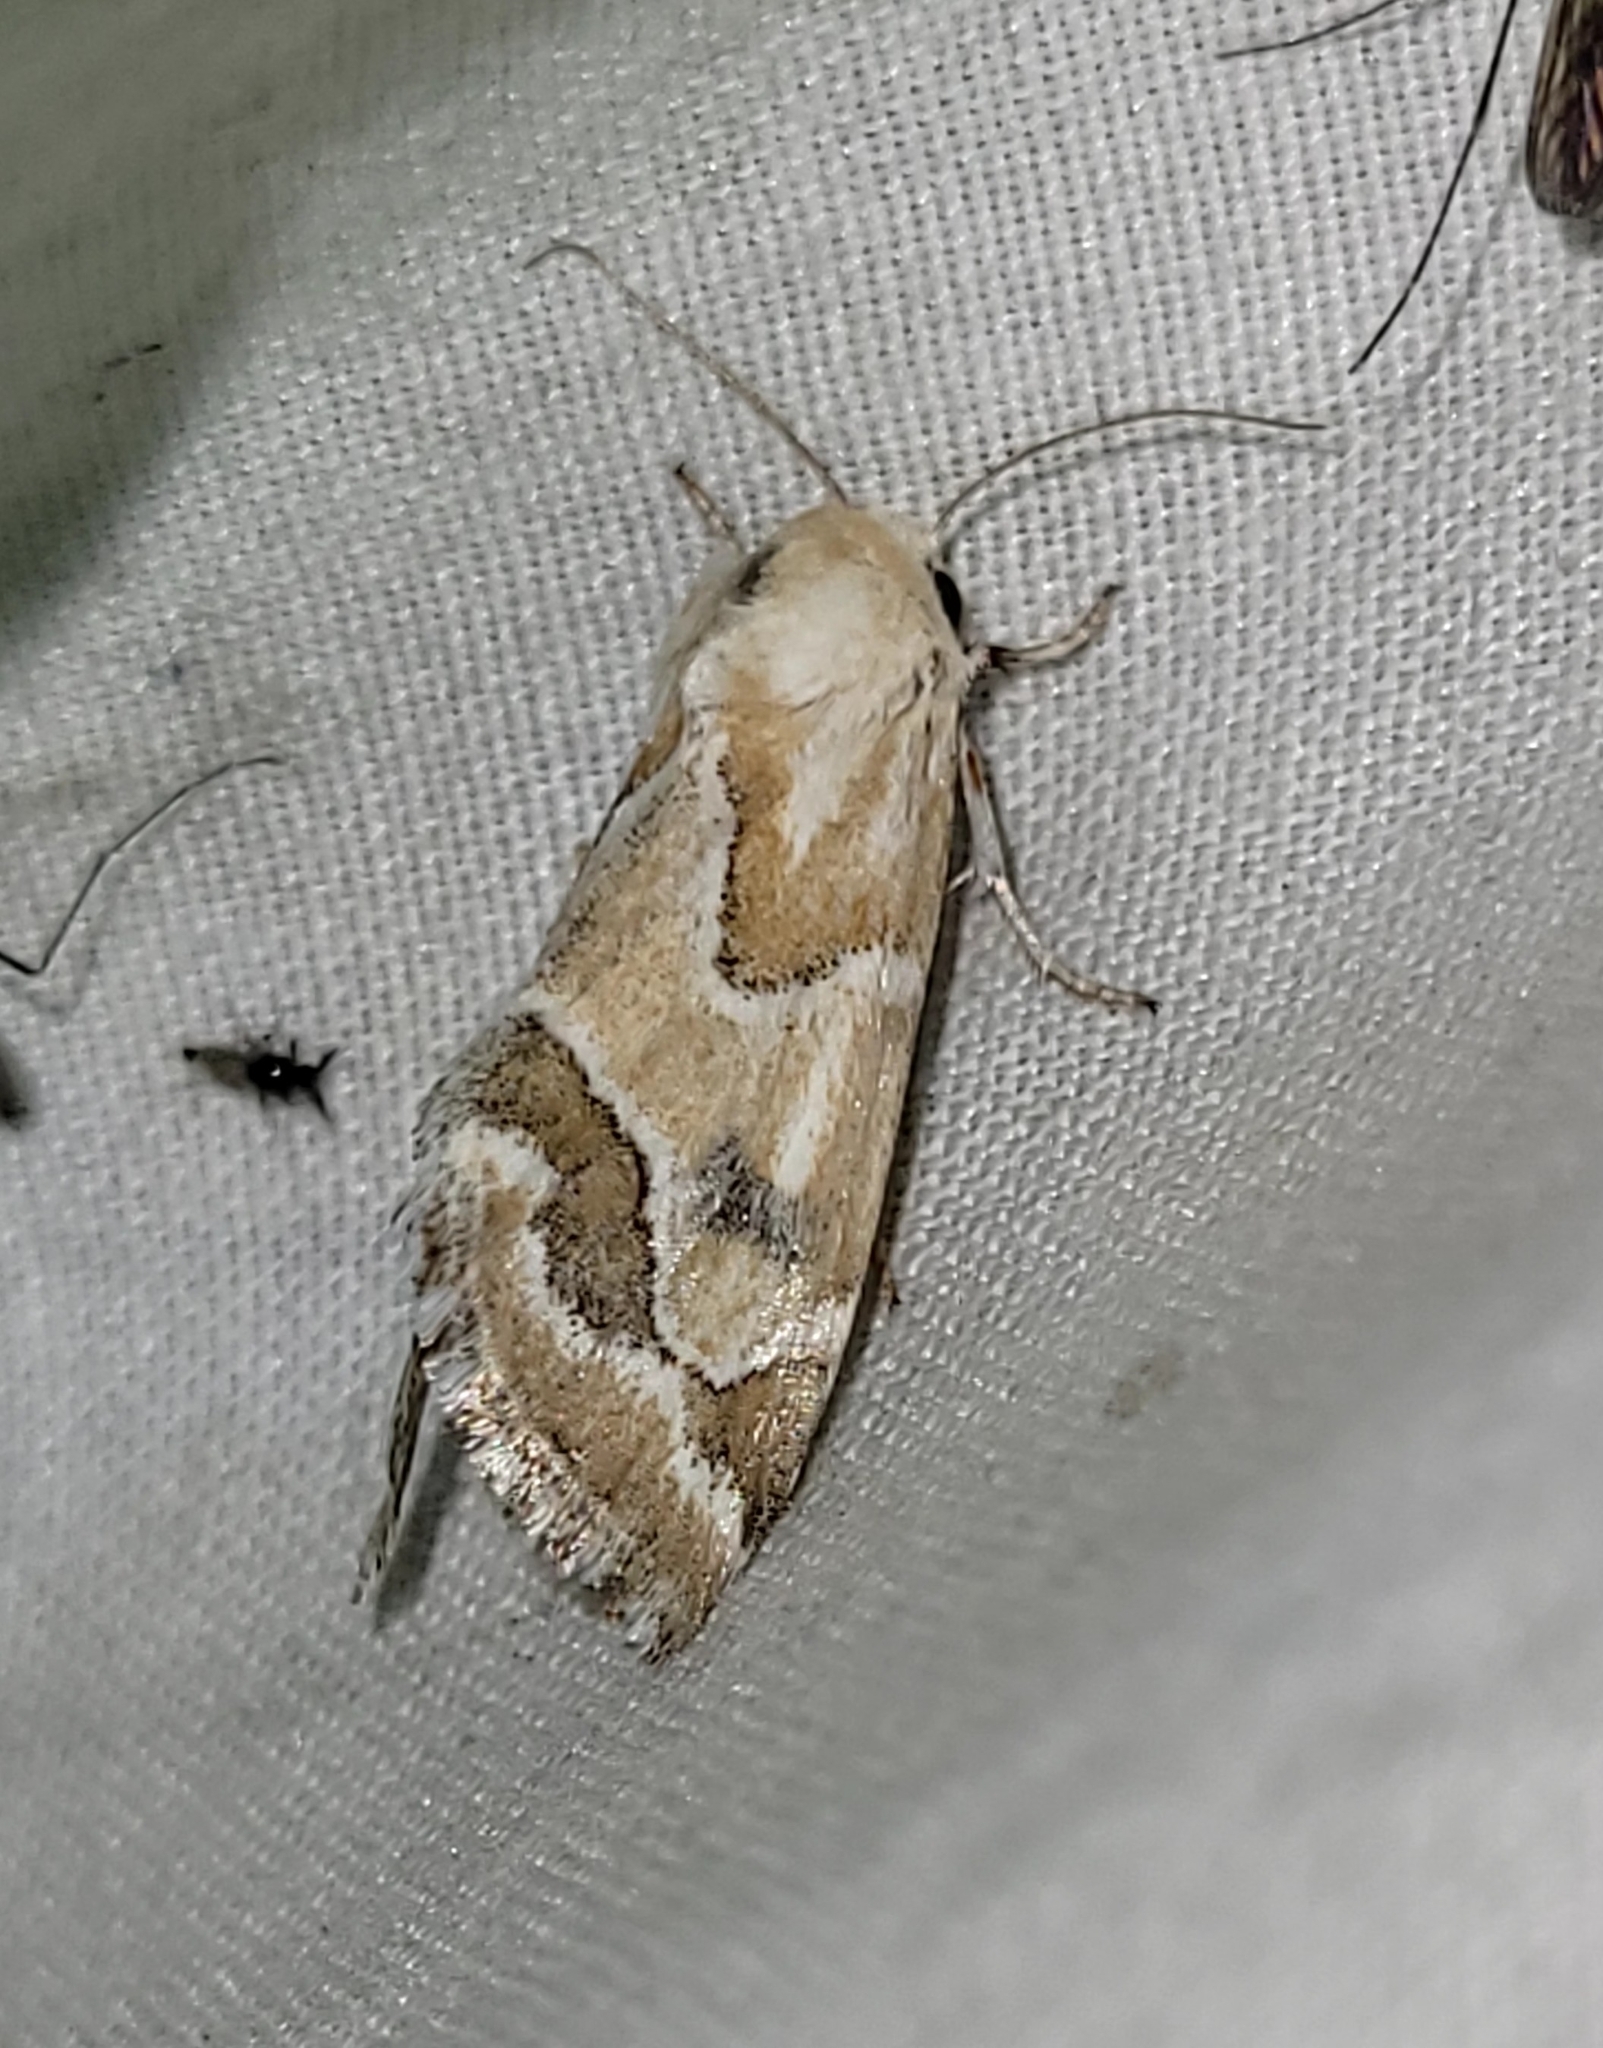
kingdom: Animalia
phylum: Arthropoda
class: Insecta
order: Lepidoptera
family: Noctuidae
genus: Schinia
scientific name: Schinia acutilinea
